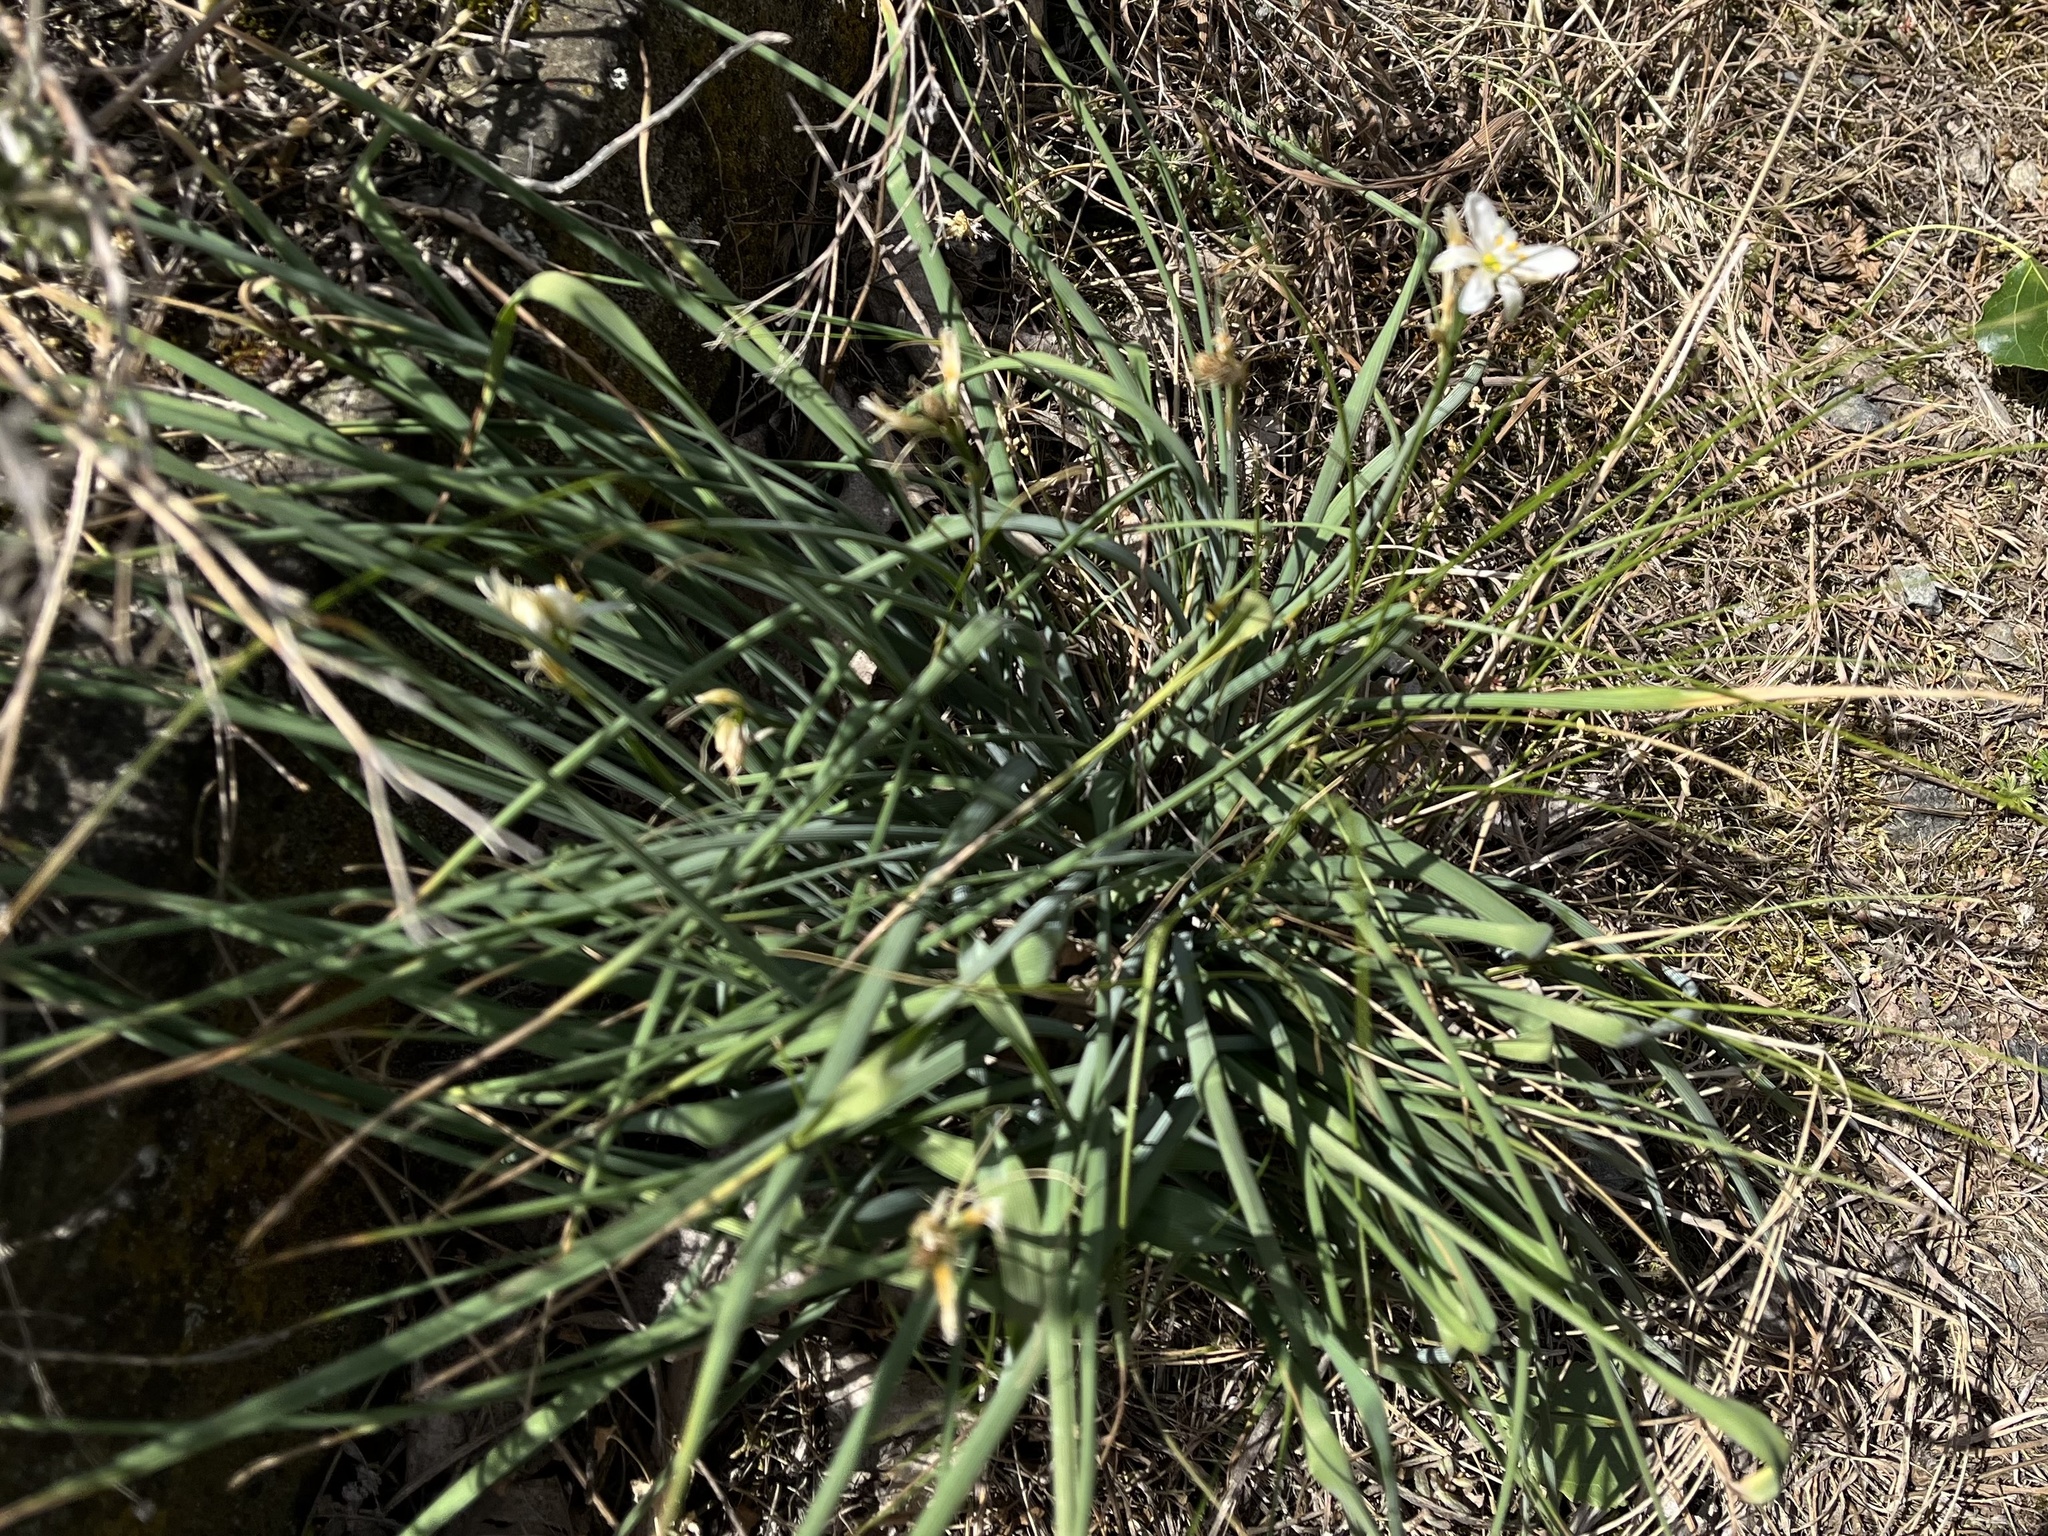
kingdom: Plantae
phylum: Tracheophyta
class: Liliopsida
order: Asparagales
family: Asparagaceae
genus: Anthericum
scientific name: Anthericum liliago
